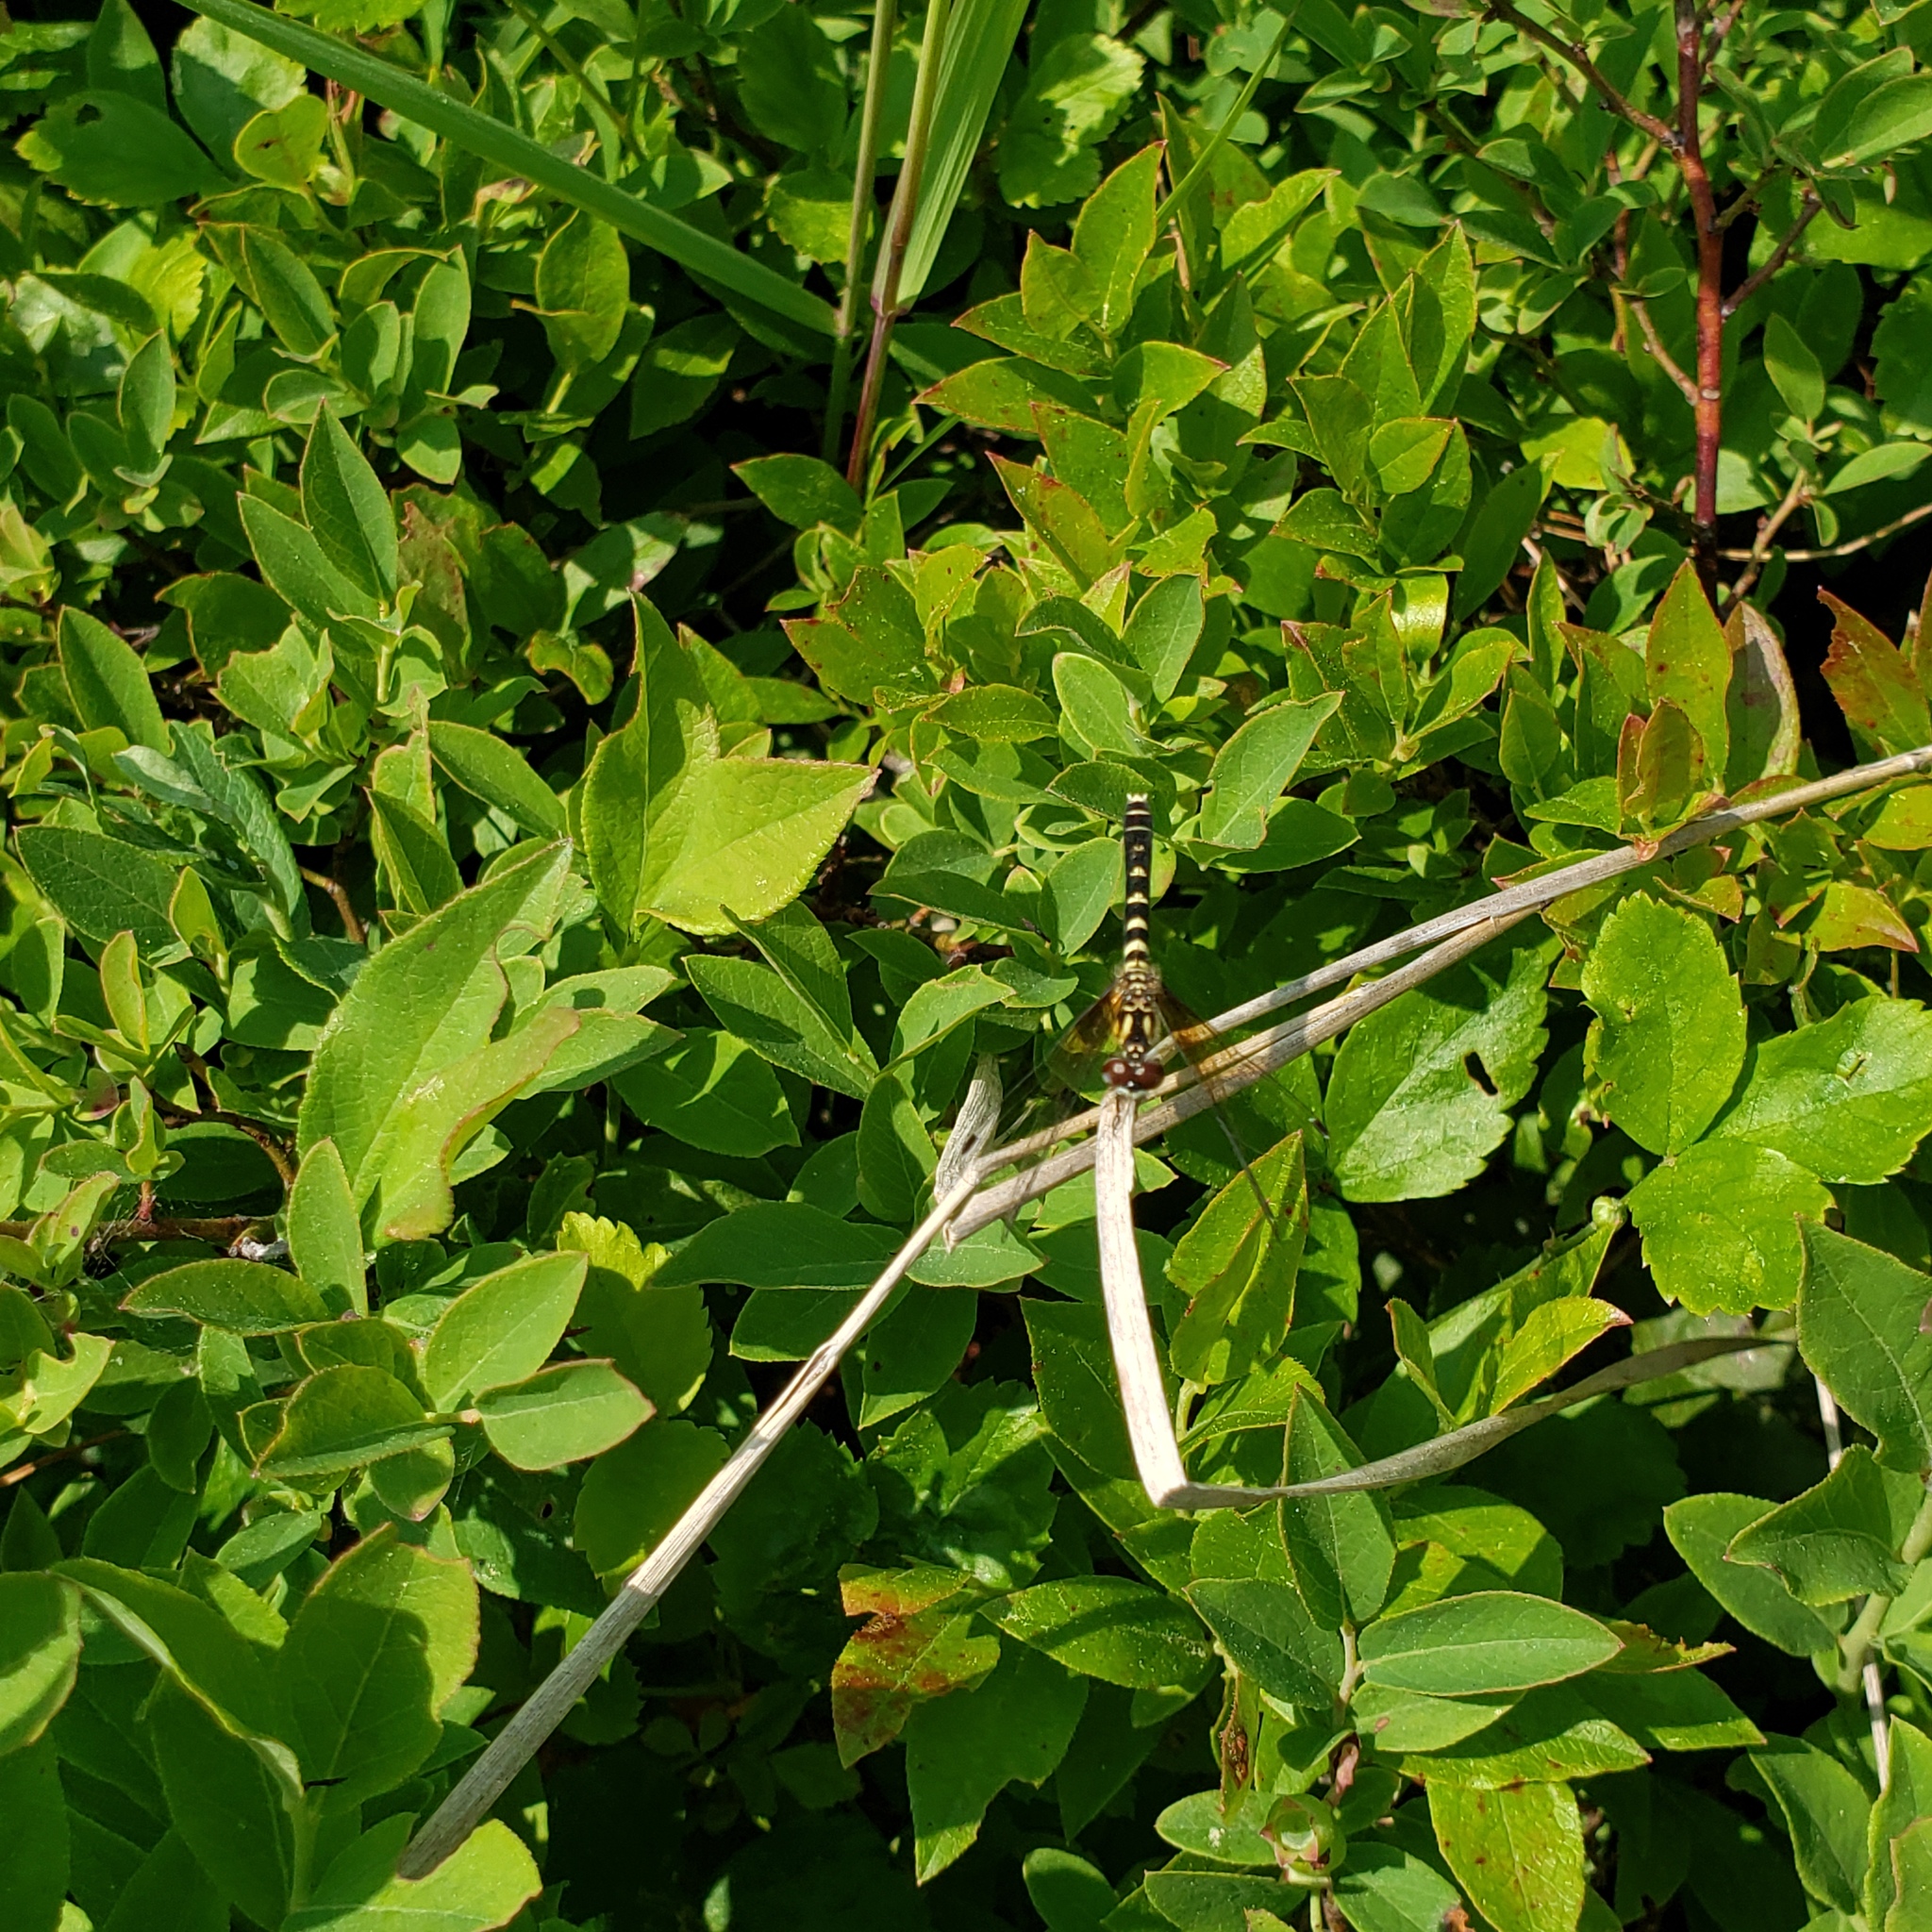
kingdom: Animalia
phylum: Arthropoda
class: Insecta
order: Odonata
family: Libellulidae
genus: Nannothemis
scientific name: Nannothemis bella
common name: Elfin skimmer
